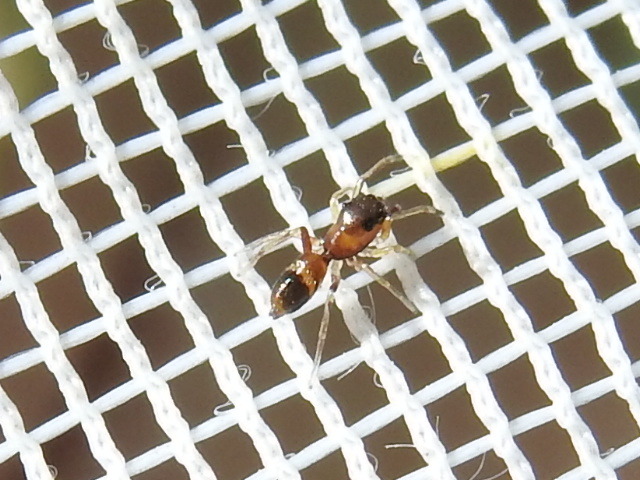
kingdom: Animalia
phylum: Arthropoda
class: Arachnida
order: Araneae
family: Salticidae
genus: Sarinda
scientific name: Sarinda hentzi
